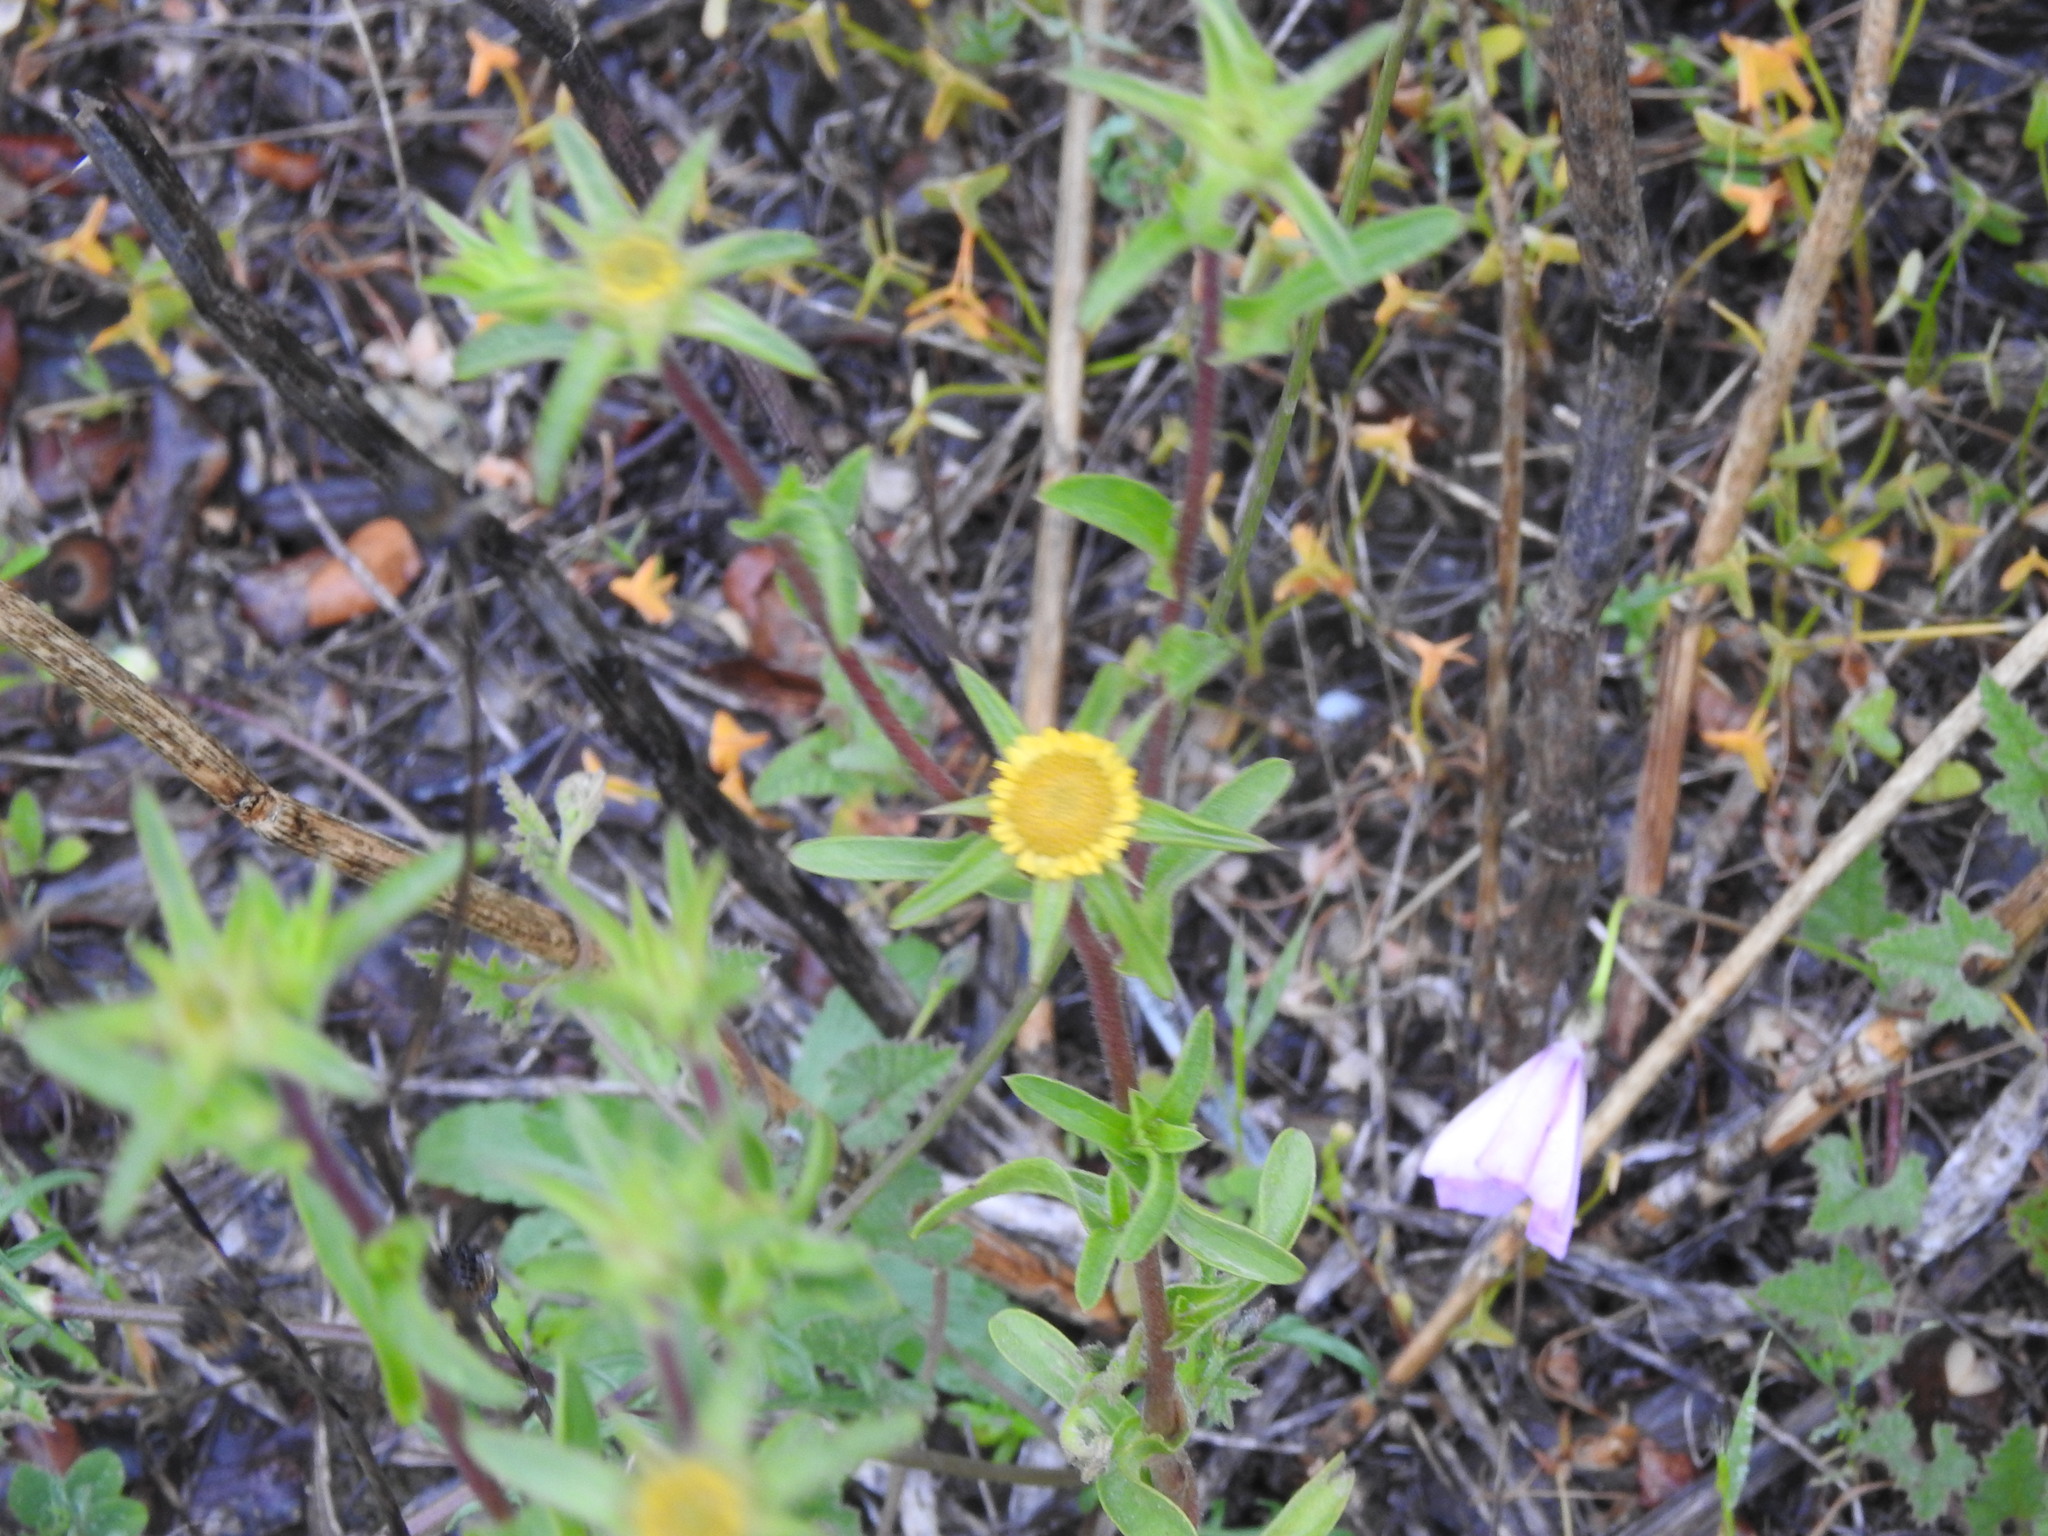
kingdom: Plantae
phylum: Tracheophyta
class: Magnoliopsida
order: Asterales
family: Asteraceae
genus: Pallenis
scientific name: Pallenis spinosa
